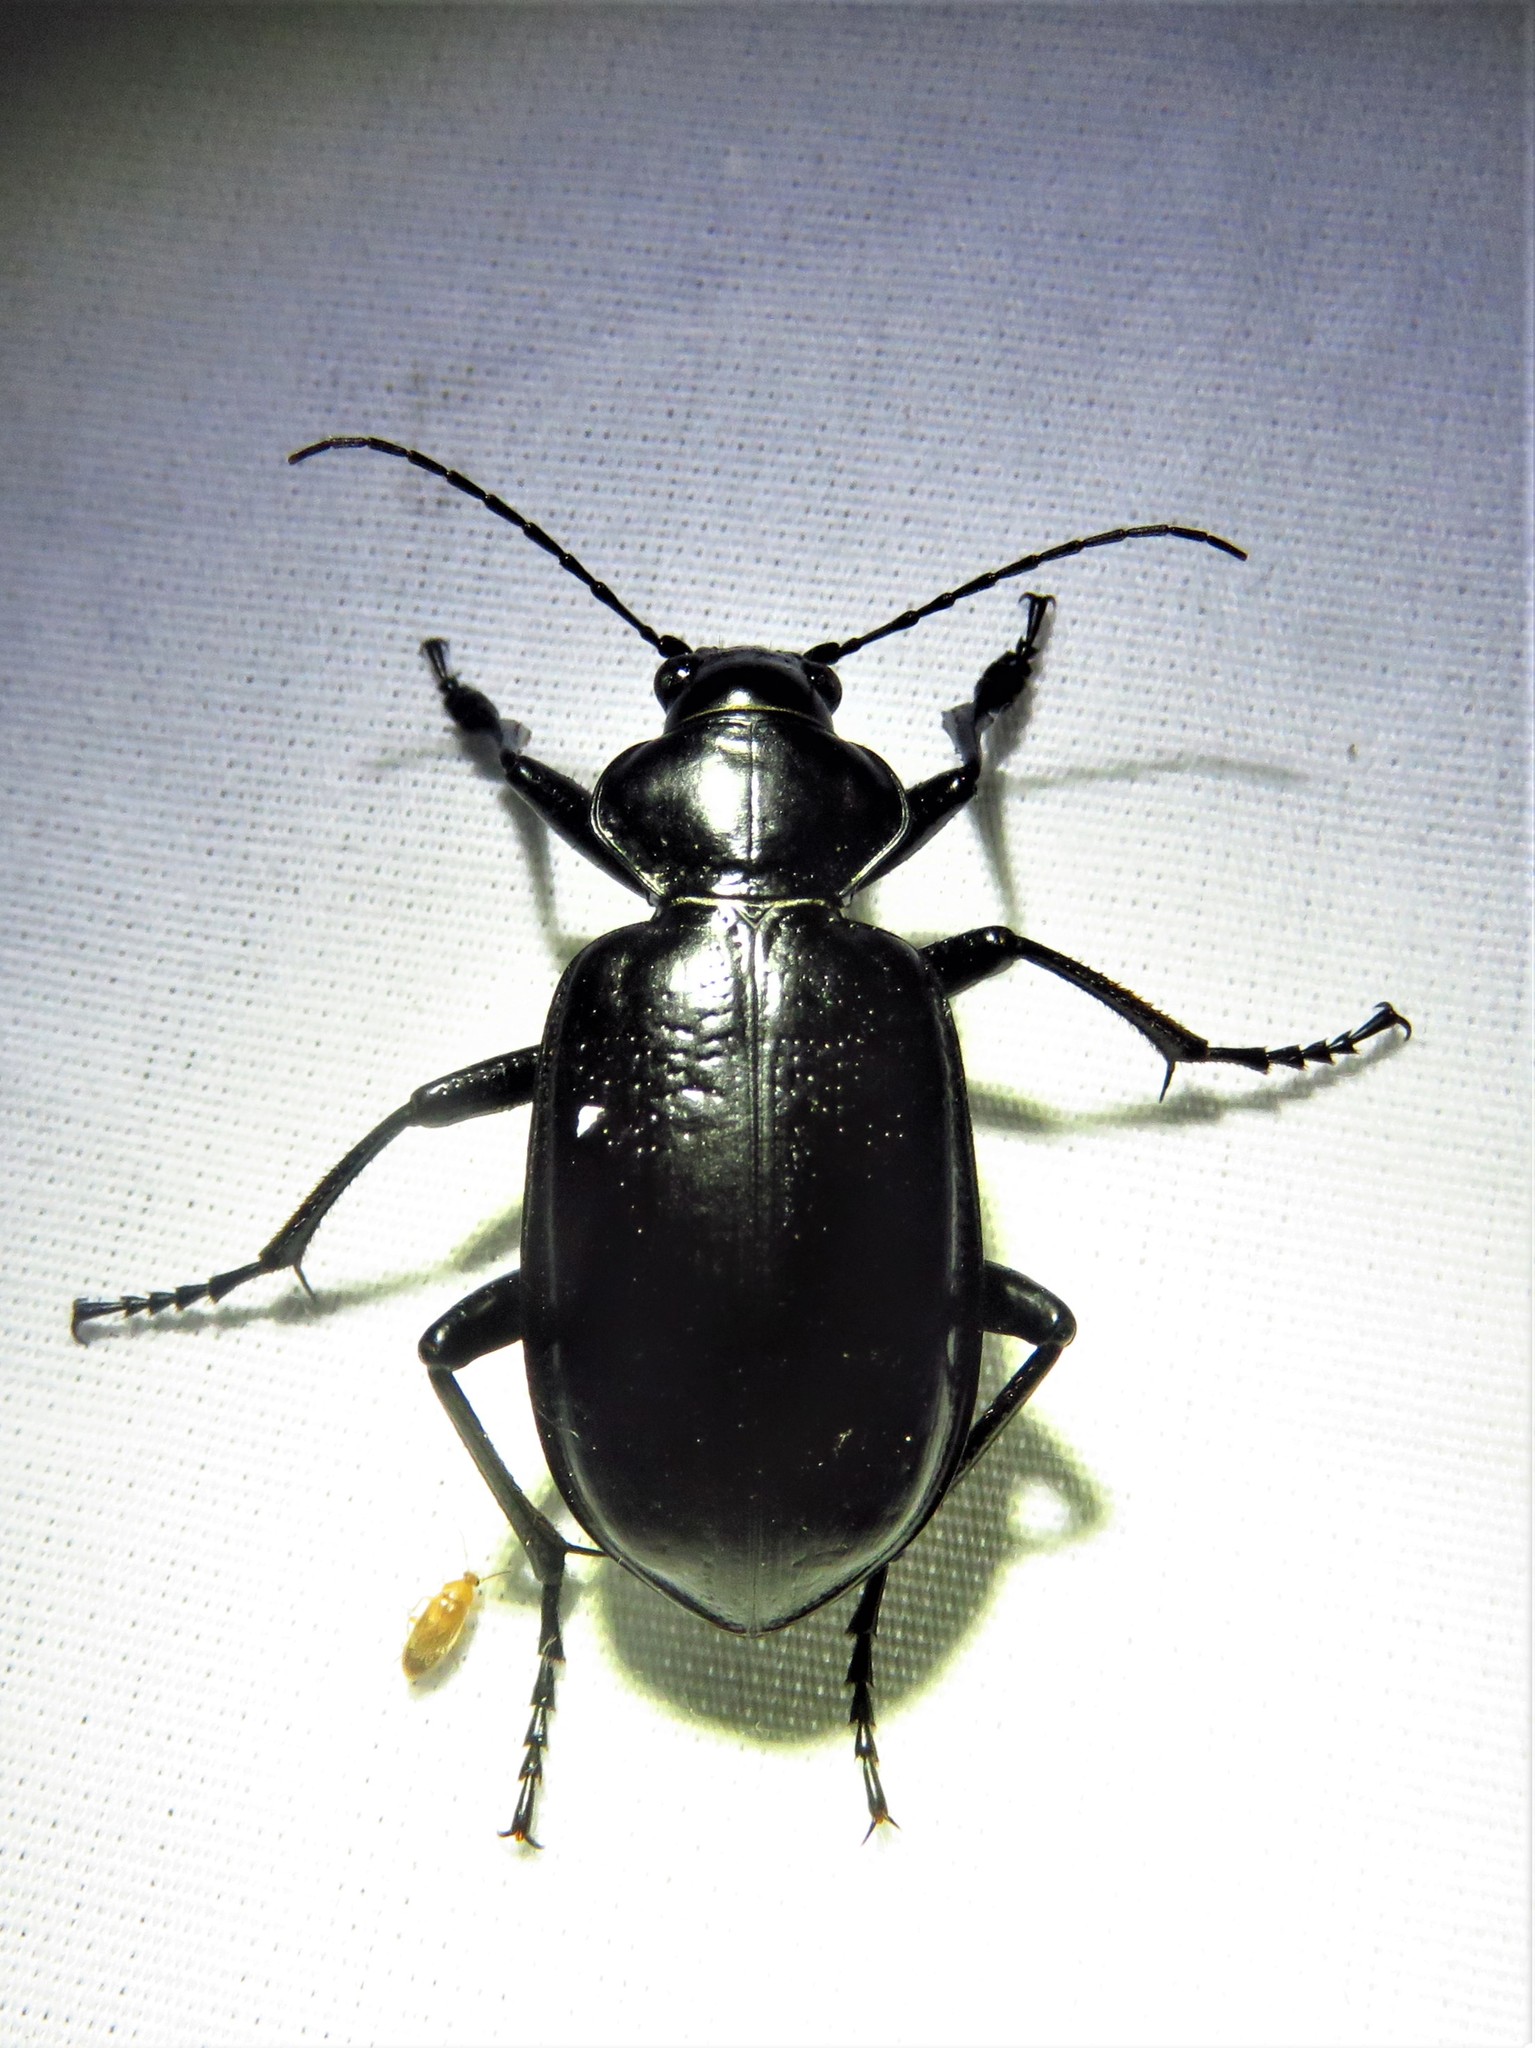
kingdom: Animalia
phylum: Arthropoda
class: Insecta
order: Coleoptera
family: Carabidae
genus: Calosoma
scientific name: Calosoma marginale
